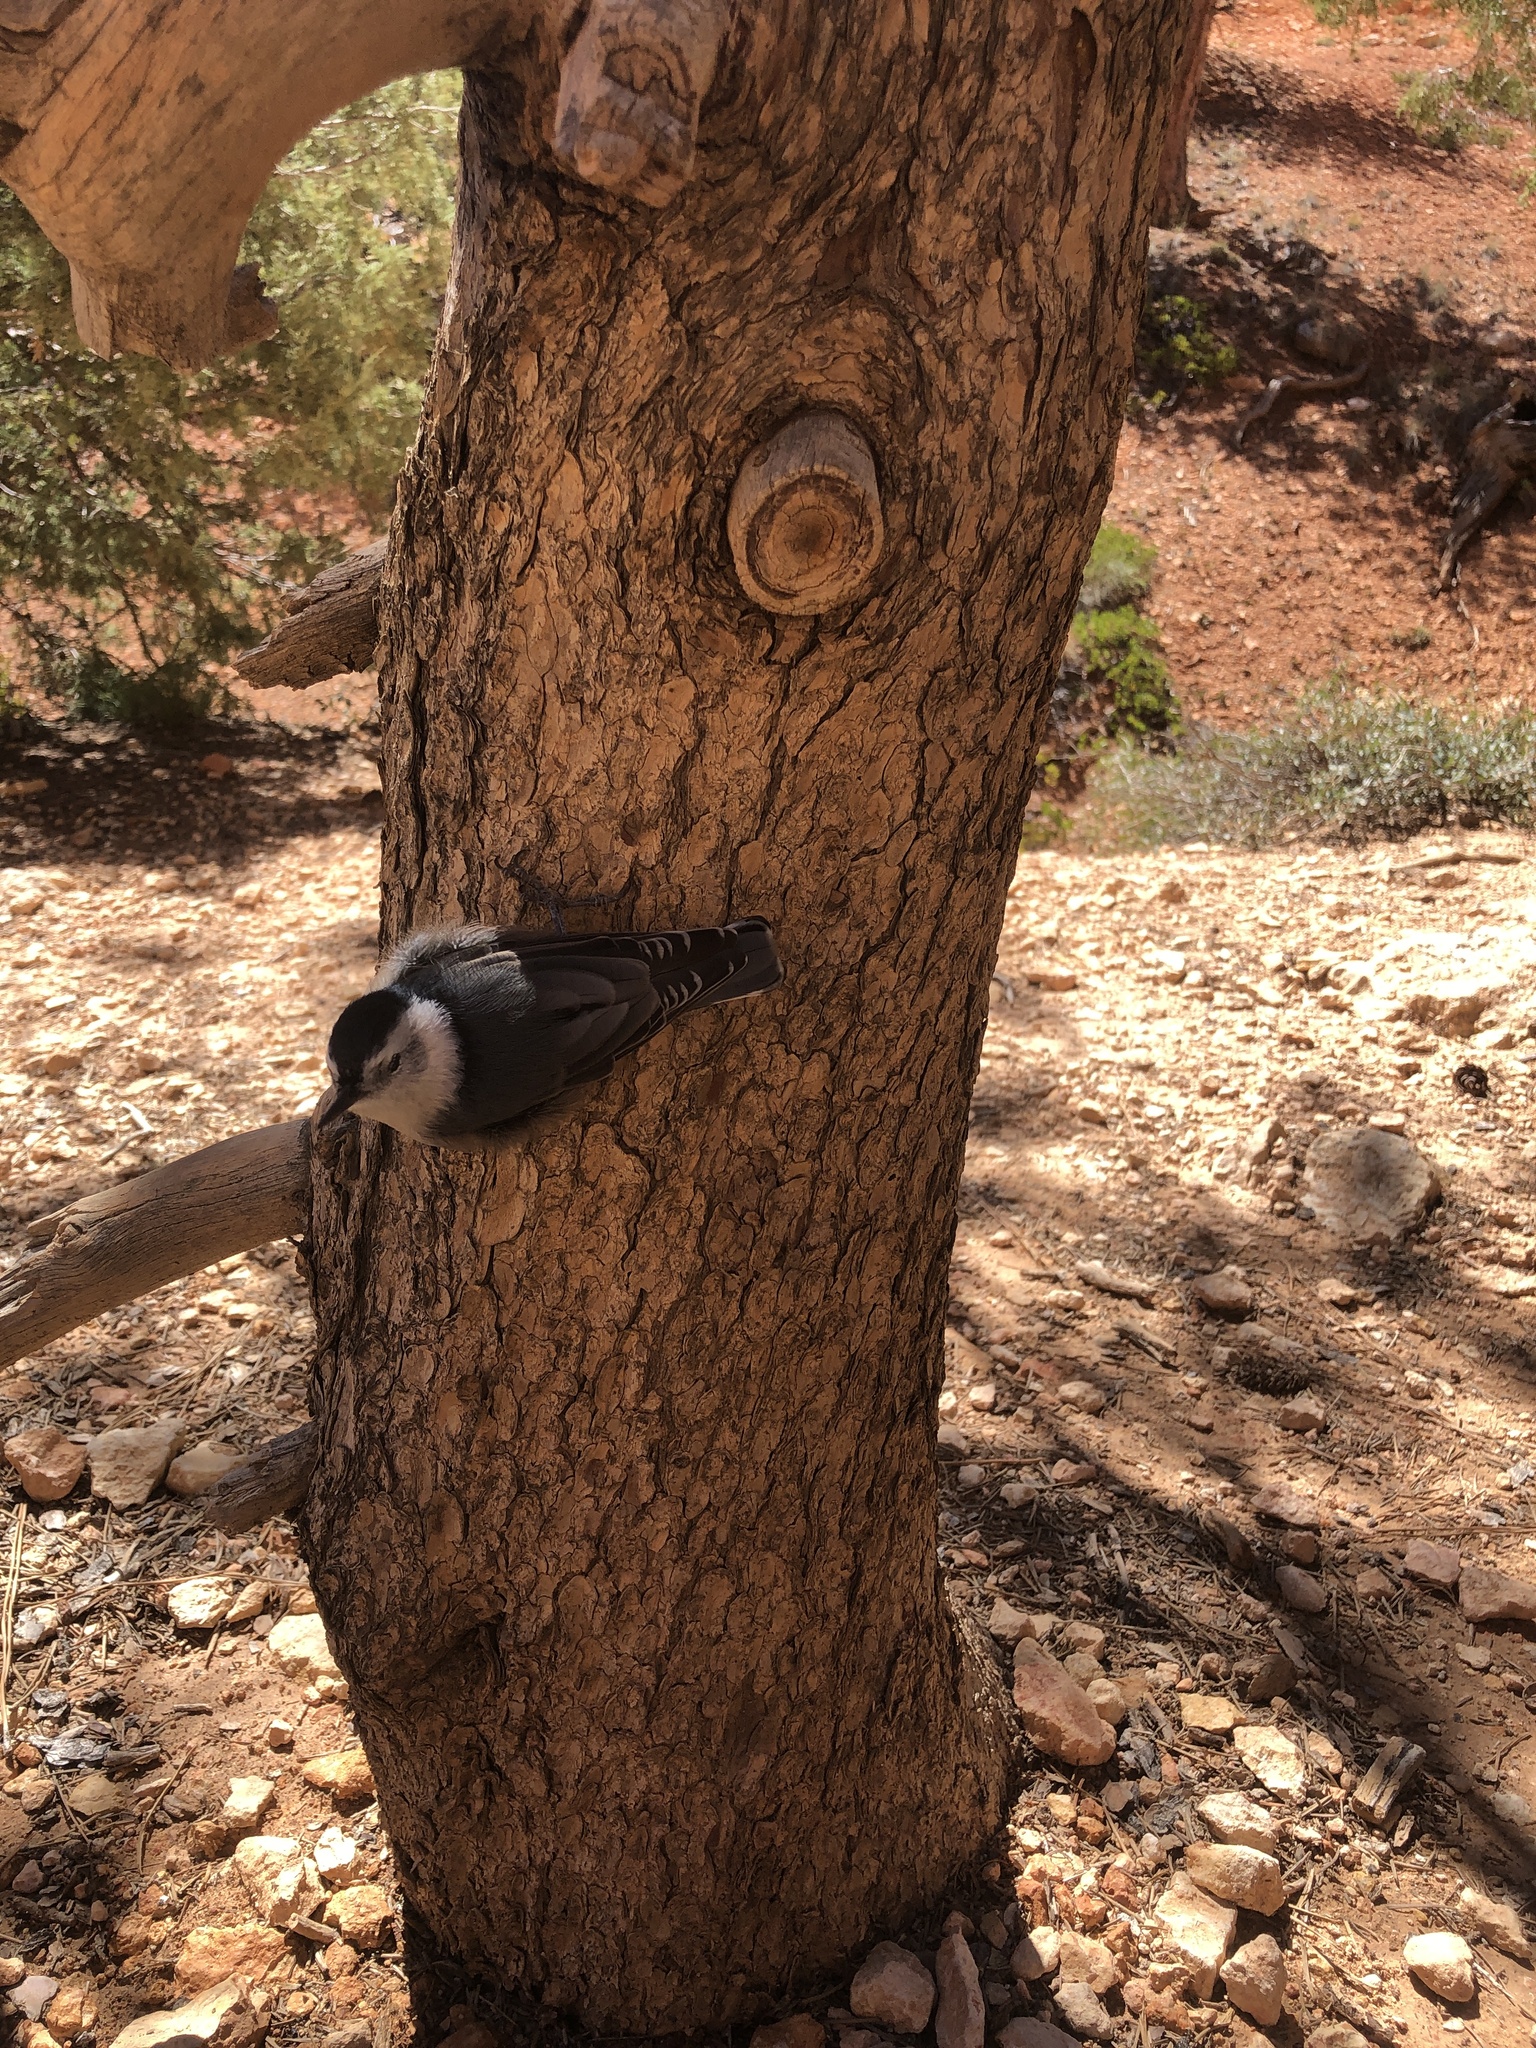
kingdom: Animalia
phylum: Chordata
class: Aves
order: Passeriformes
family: Sittidae
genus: Sitta
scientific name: Sitta carolinensis
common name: White-breasted nuthatch
